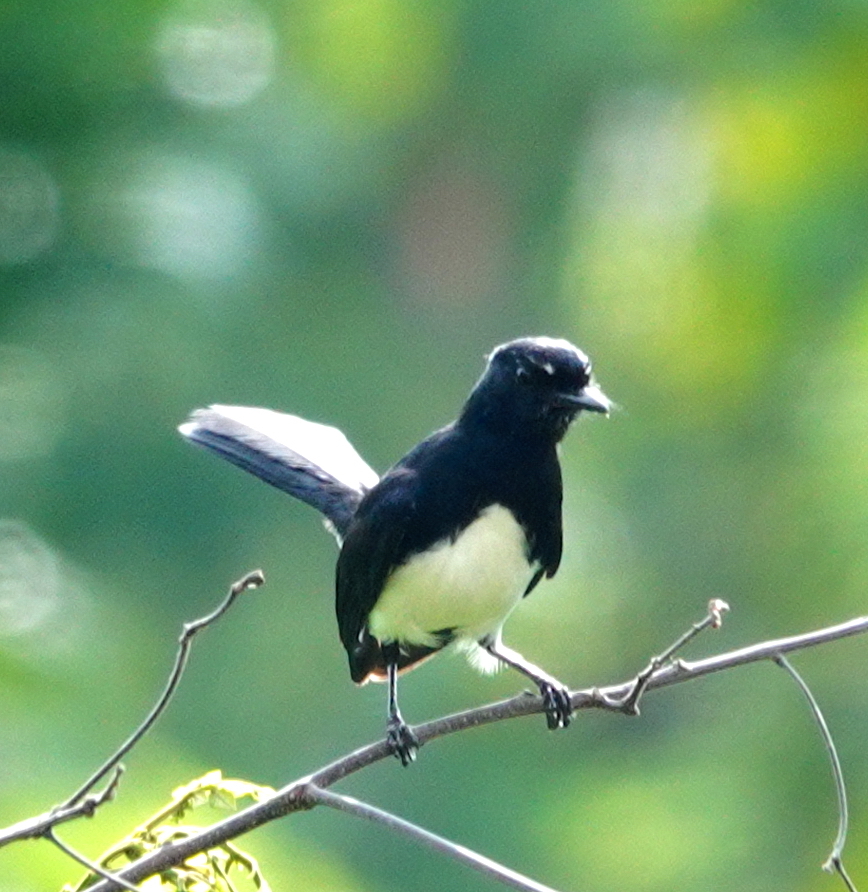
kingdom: Animalia
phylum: Chordata
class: Aves
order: Passeriformes
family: Rhipiduridae
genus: Rhipidura
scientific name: Rhipidura leucophrys
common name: Willie wagtail
